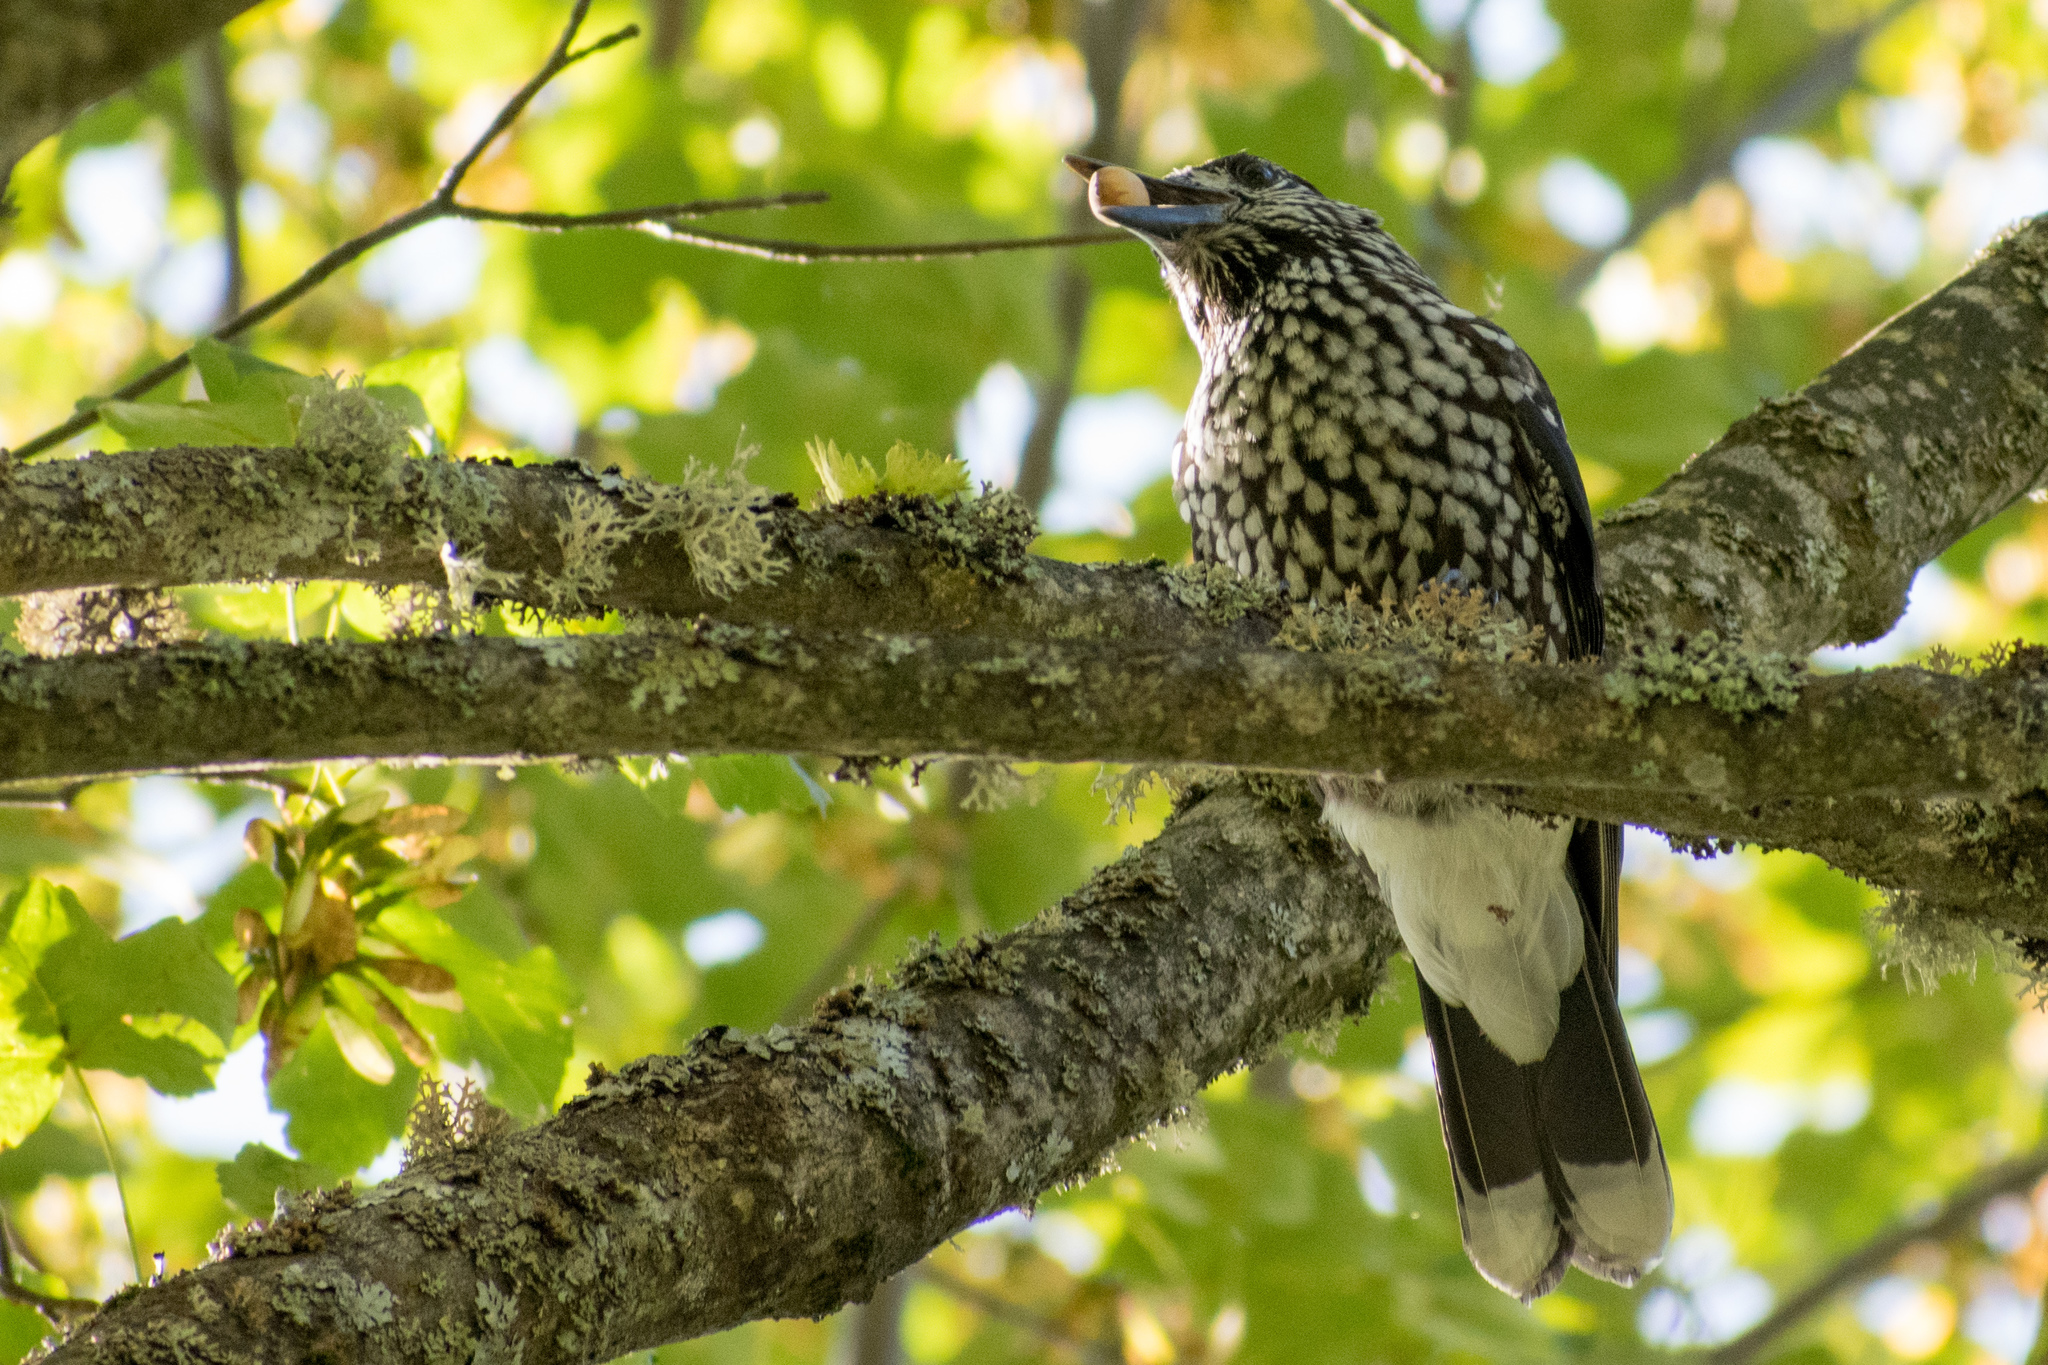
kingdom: Animalia
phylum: Chordata
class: Aves
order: Passeriformes
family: Corvidae
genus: Nucifraga
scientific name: Nucifraga caryocatactes
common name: Spotted nutcracker
